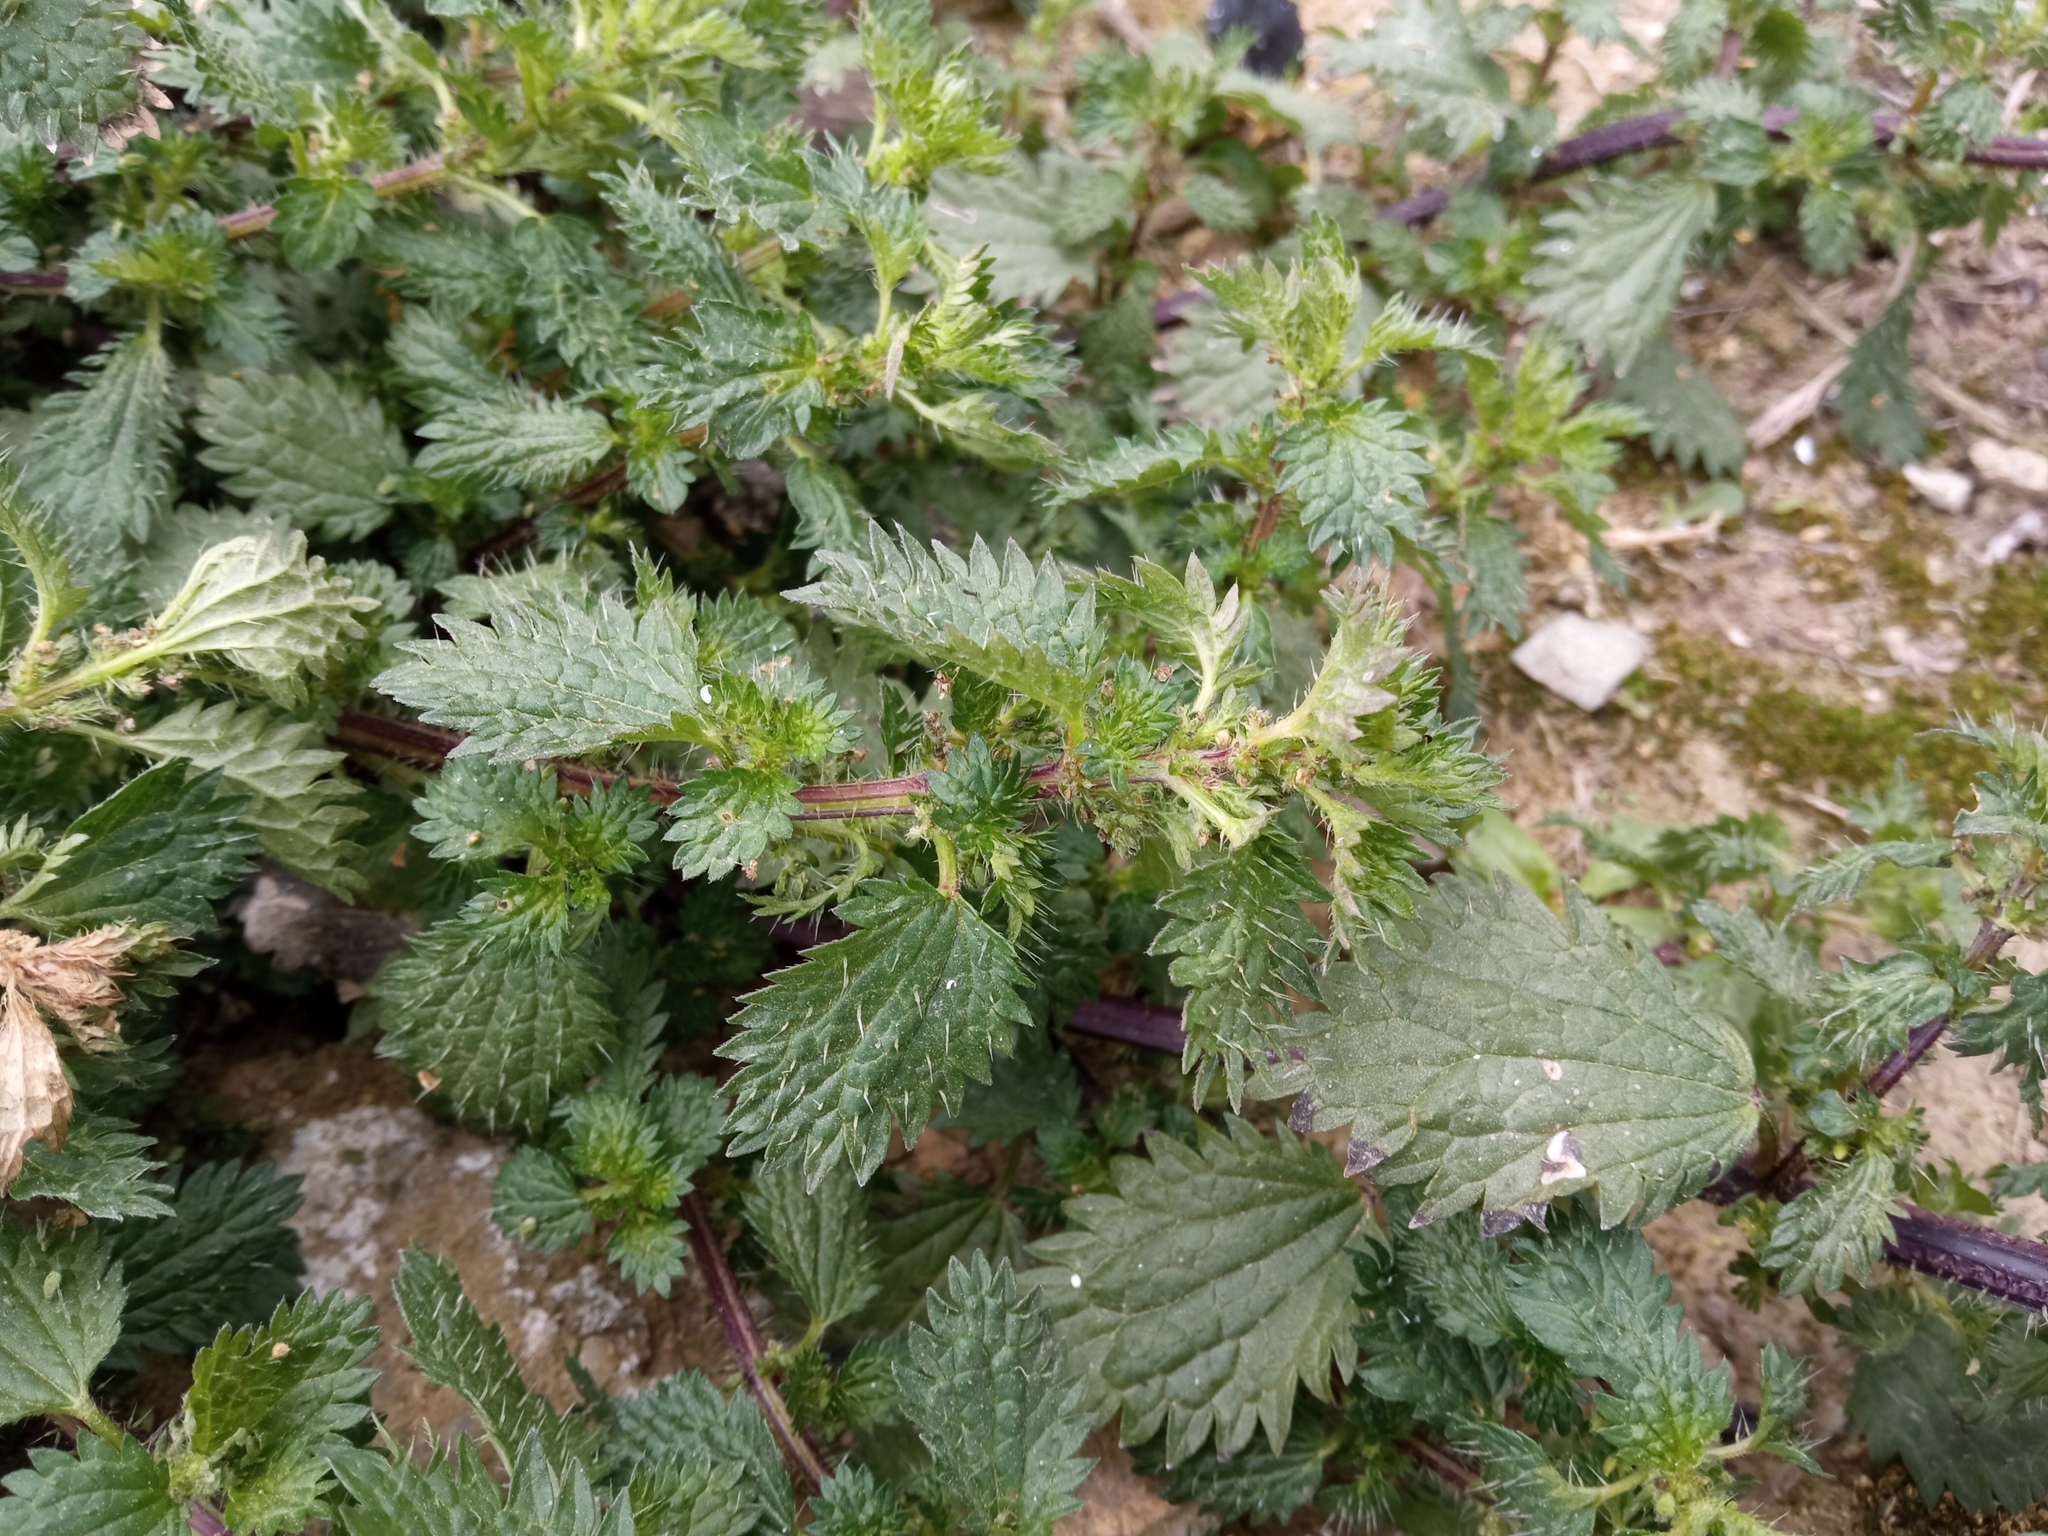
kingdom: Plantae
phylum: Tracheophyta
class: Magnoliopsida
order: Rosales
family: Urticaceae
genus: Urtica
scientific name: Urtica urens
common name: Dwarf nettle
